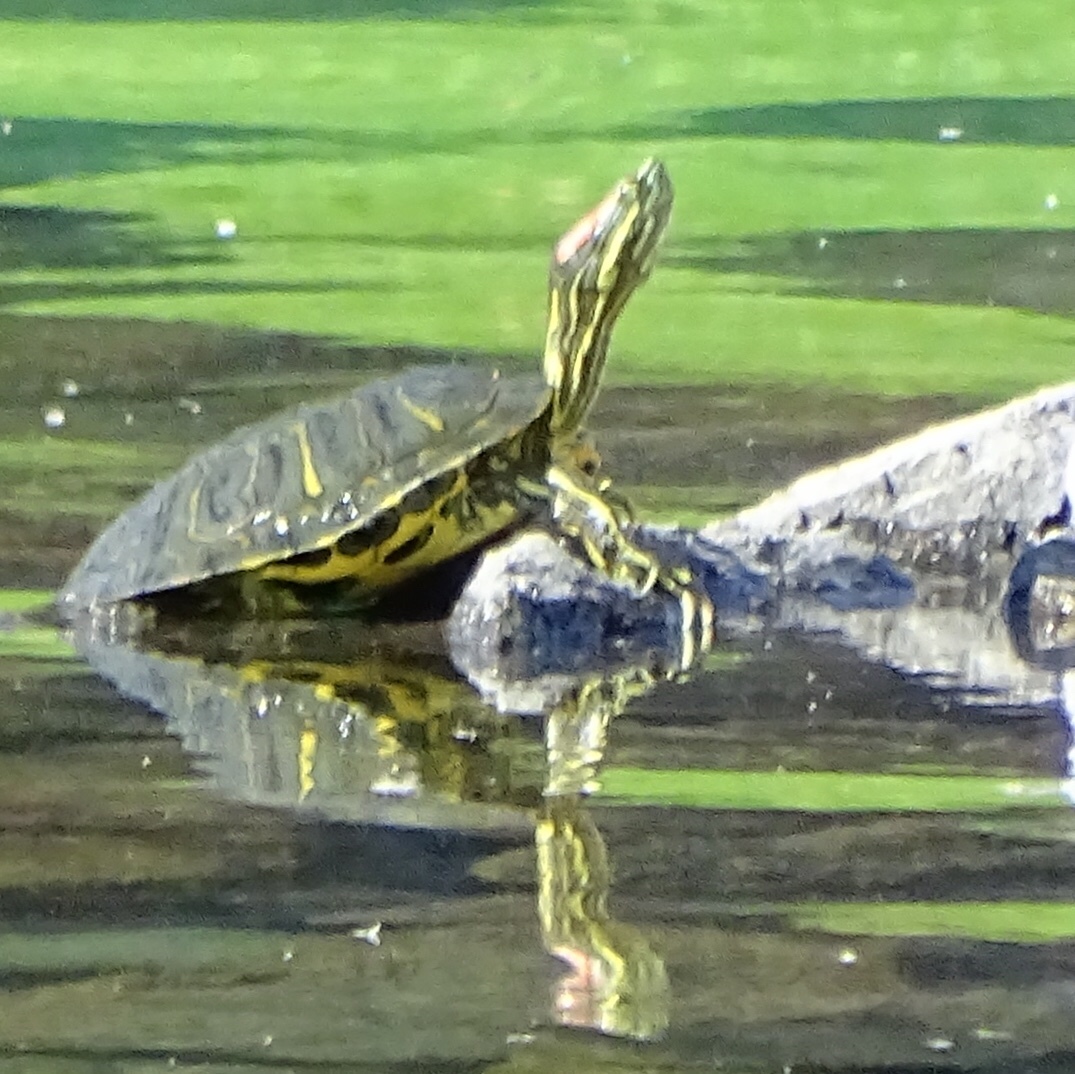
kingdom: Animalia
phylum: Chordata
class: Testudines
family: Emydidae
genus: Trachemys
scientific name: Trachemys scripta
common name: Slider
